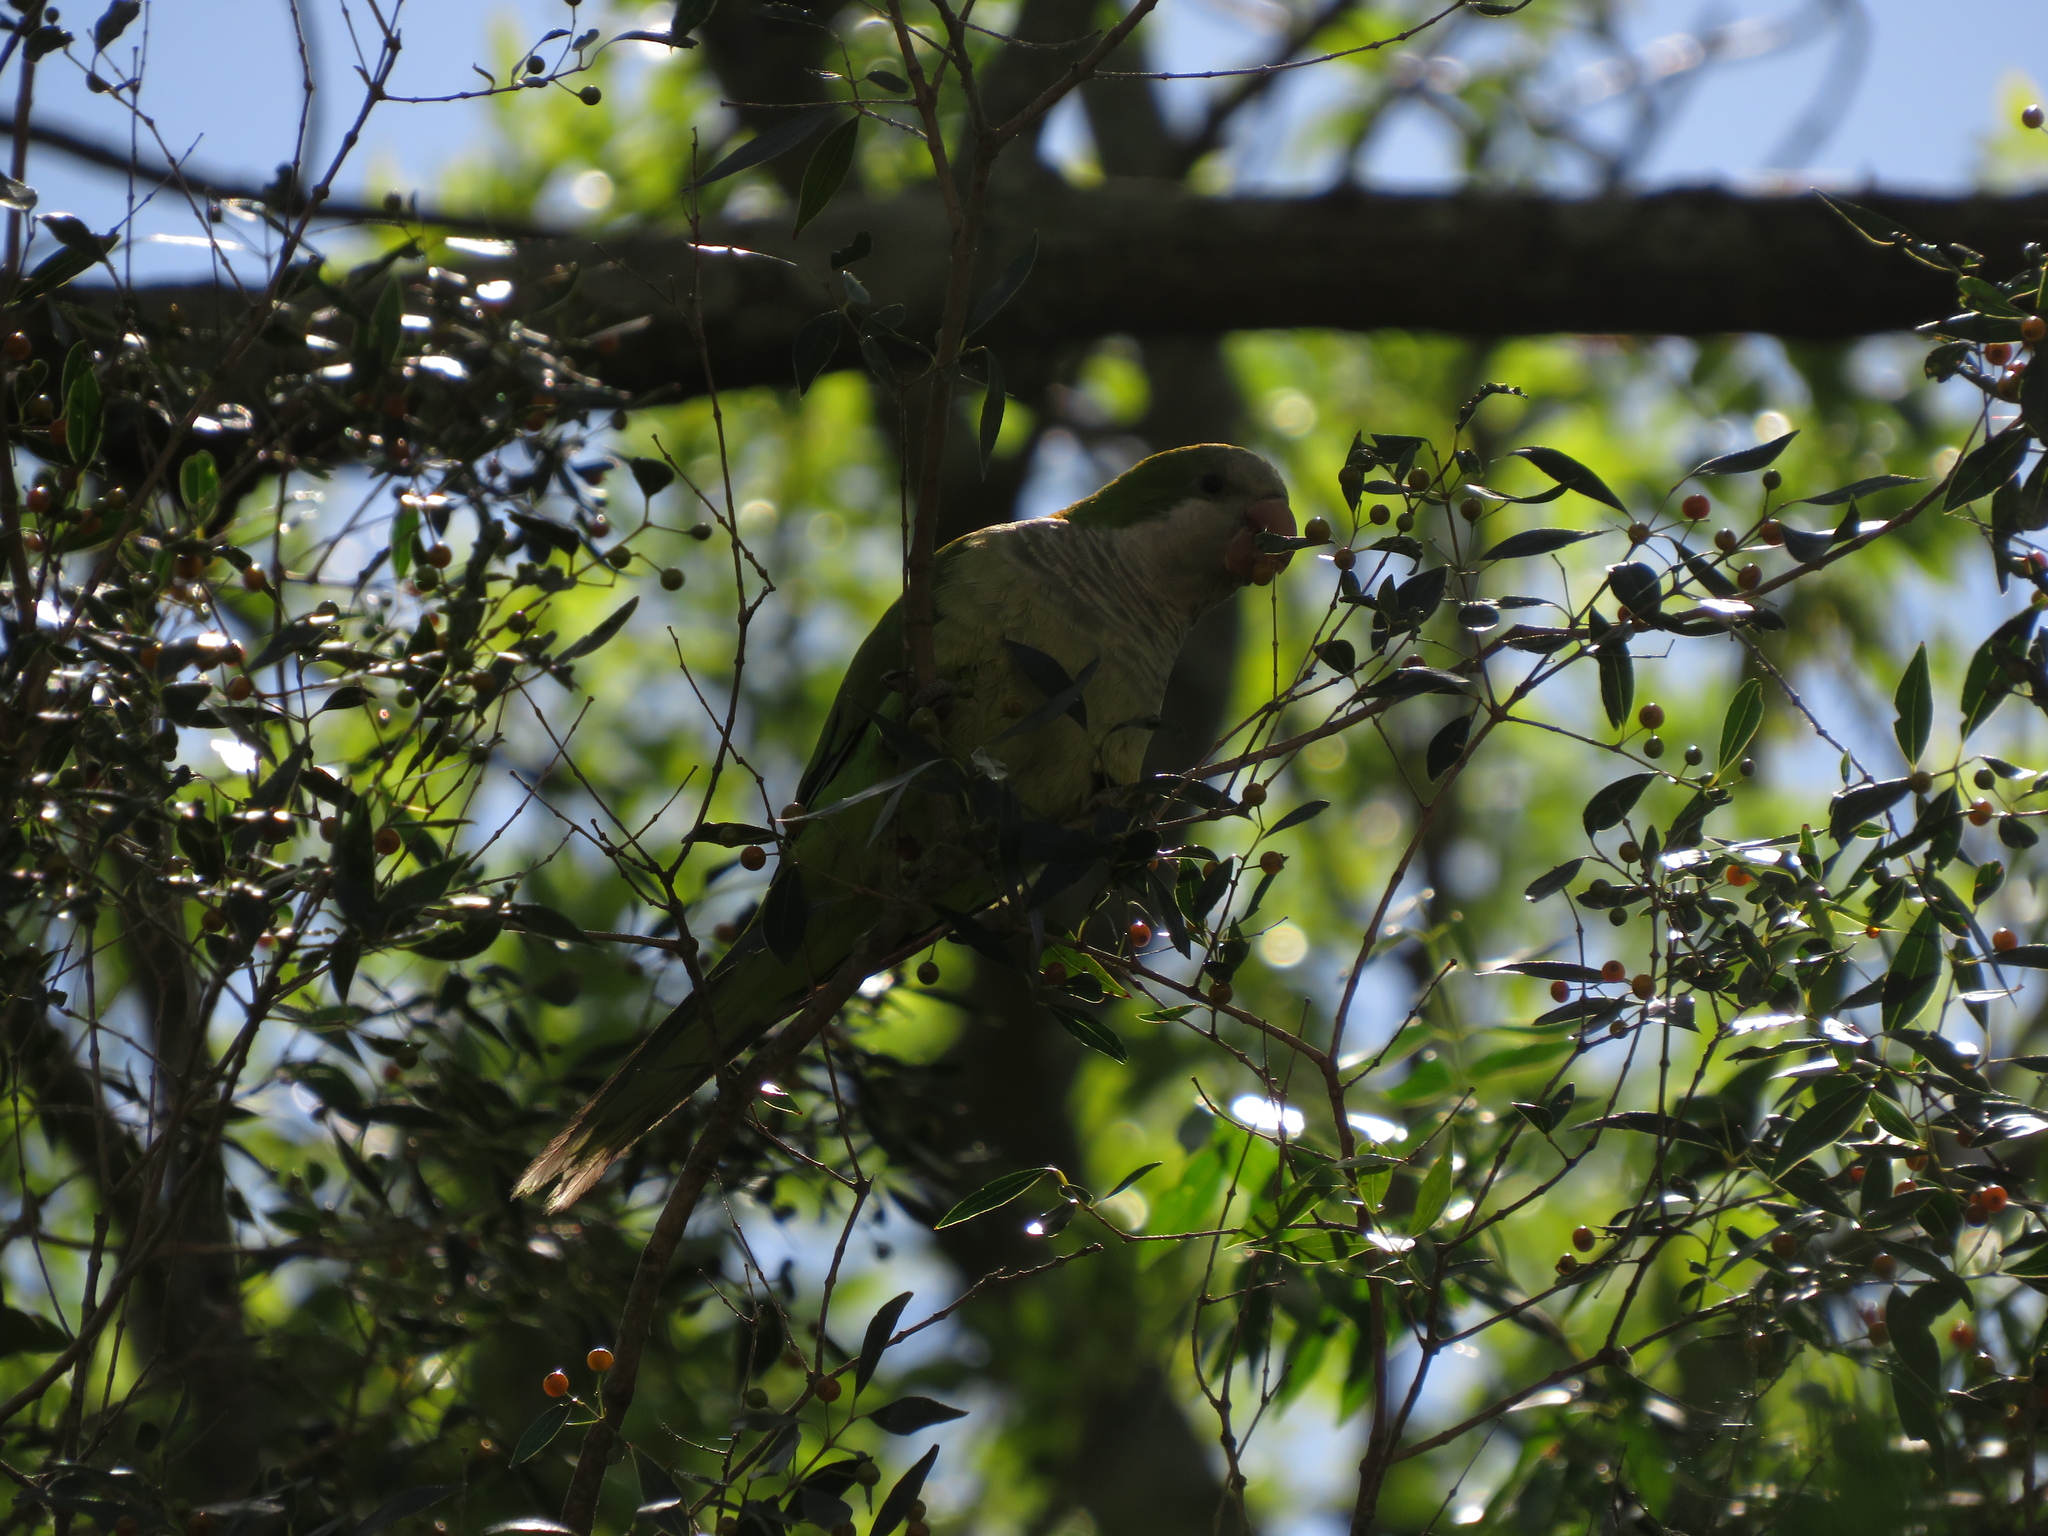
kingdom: Animalia
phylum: Chordata
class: Aves
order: Psittaciformes
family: Psittacidae
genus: Myiopsitta
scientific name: Myiopsitta monachus
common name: Monk parakeet
